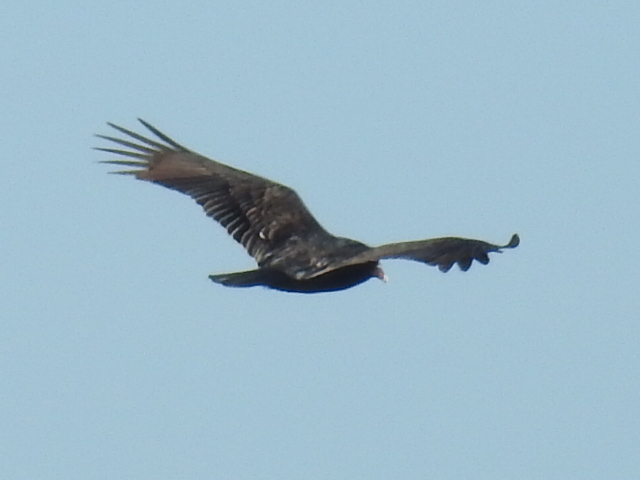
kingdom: Animalia
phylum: Chordata
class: Aves
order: Accipitriformes
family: Cathartidae
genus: Cathartes
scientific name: Cathartes aura
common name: Turkey vulture
